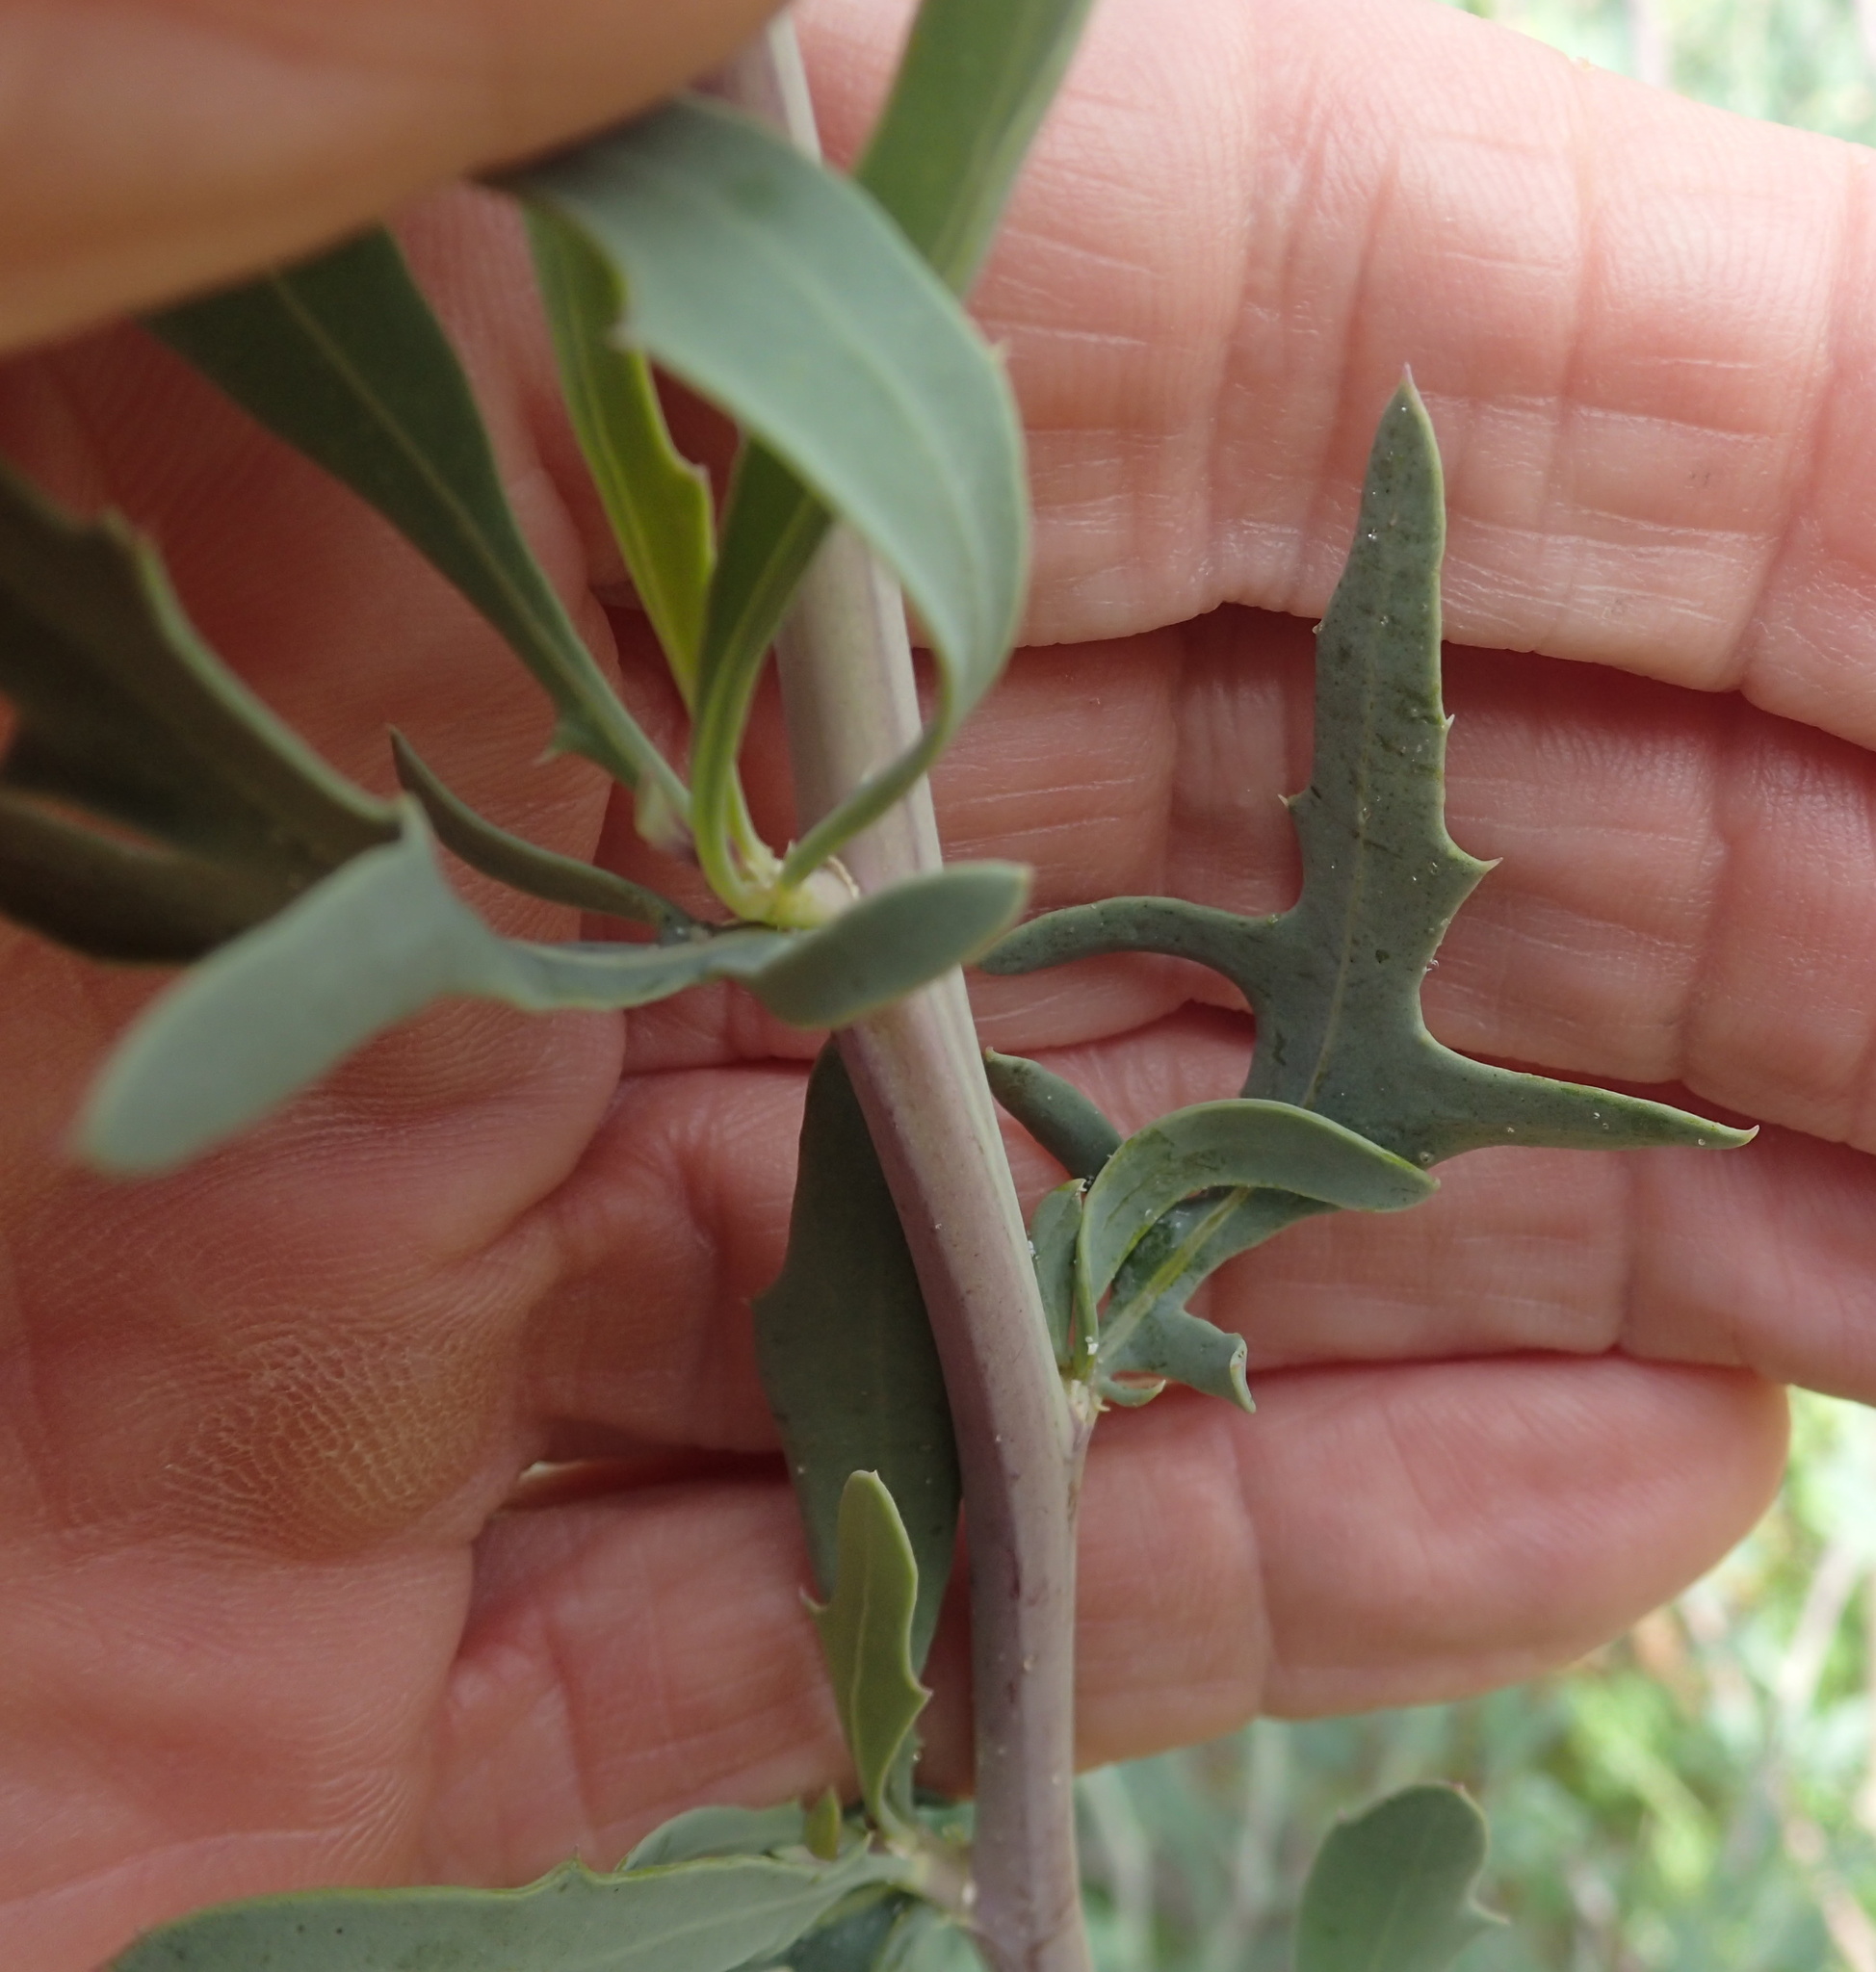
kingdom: Plantae
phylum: Tracheophyta
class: Magnoliopsida
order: Asterales
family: Asteraceae
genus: Othonna
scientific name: Othonna coronopifolia
